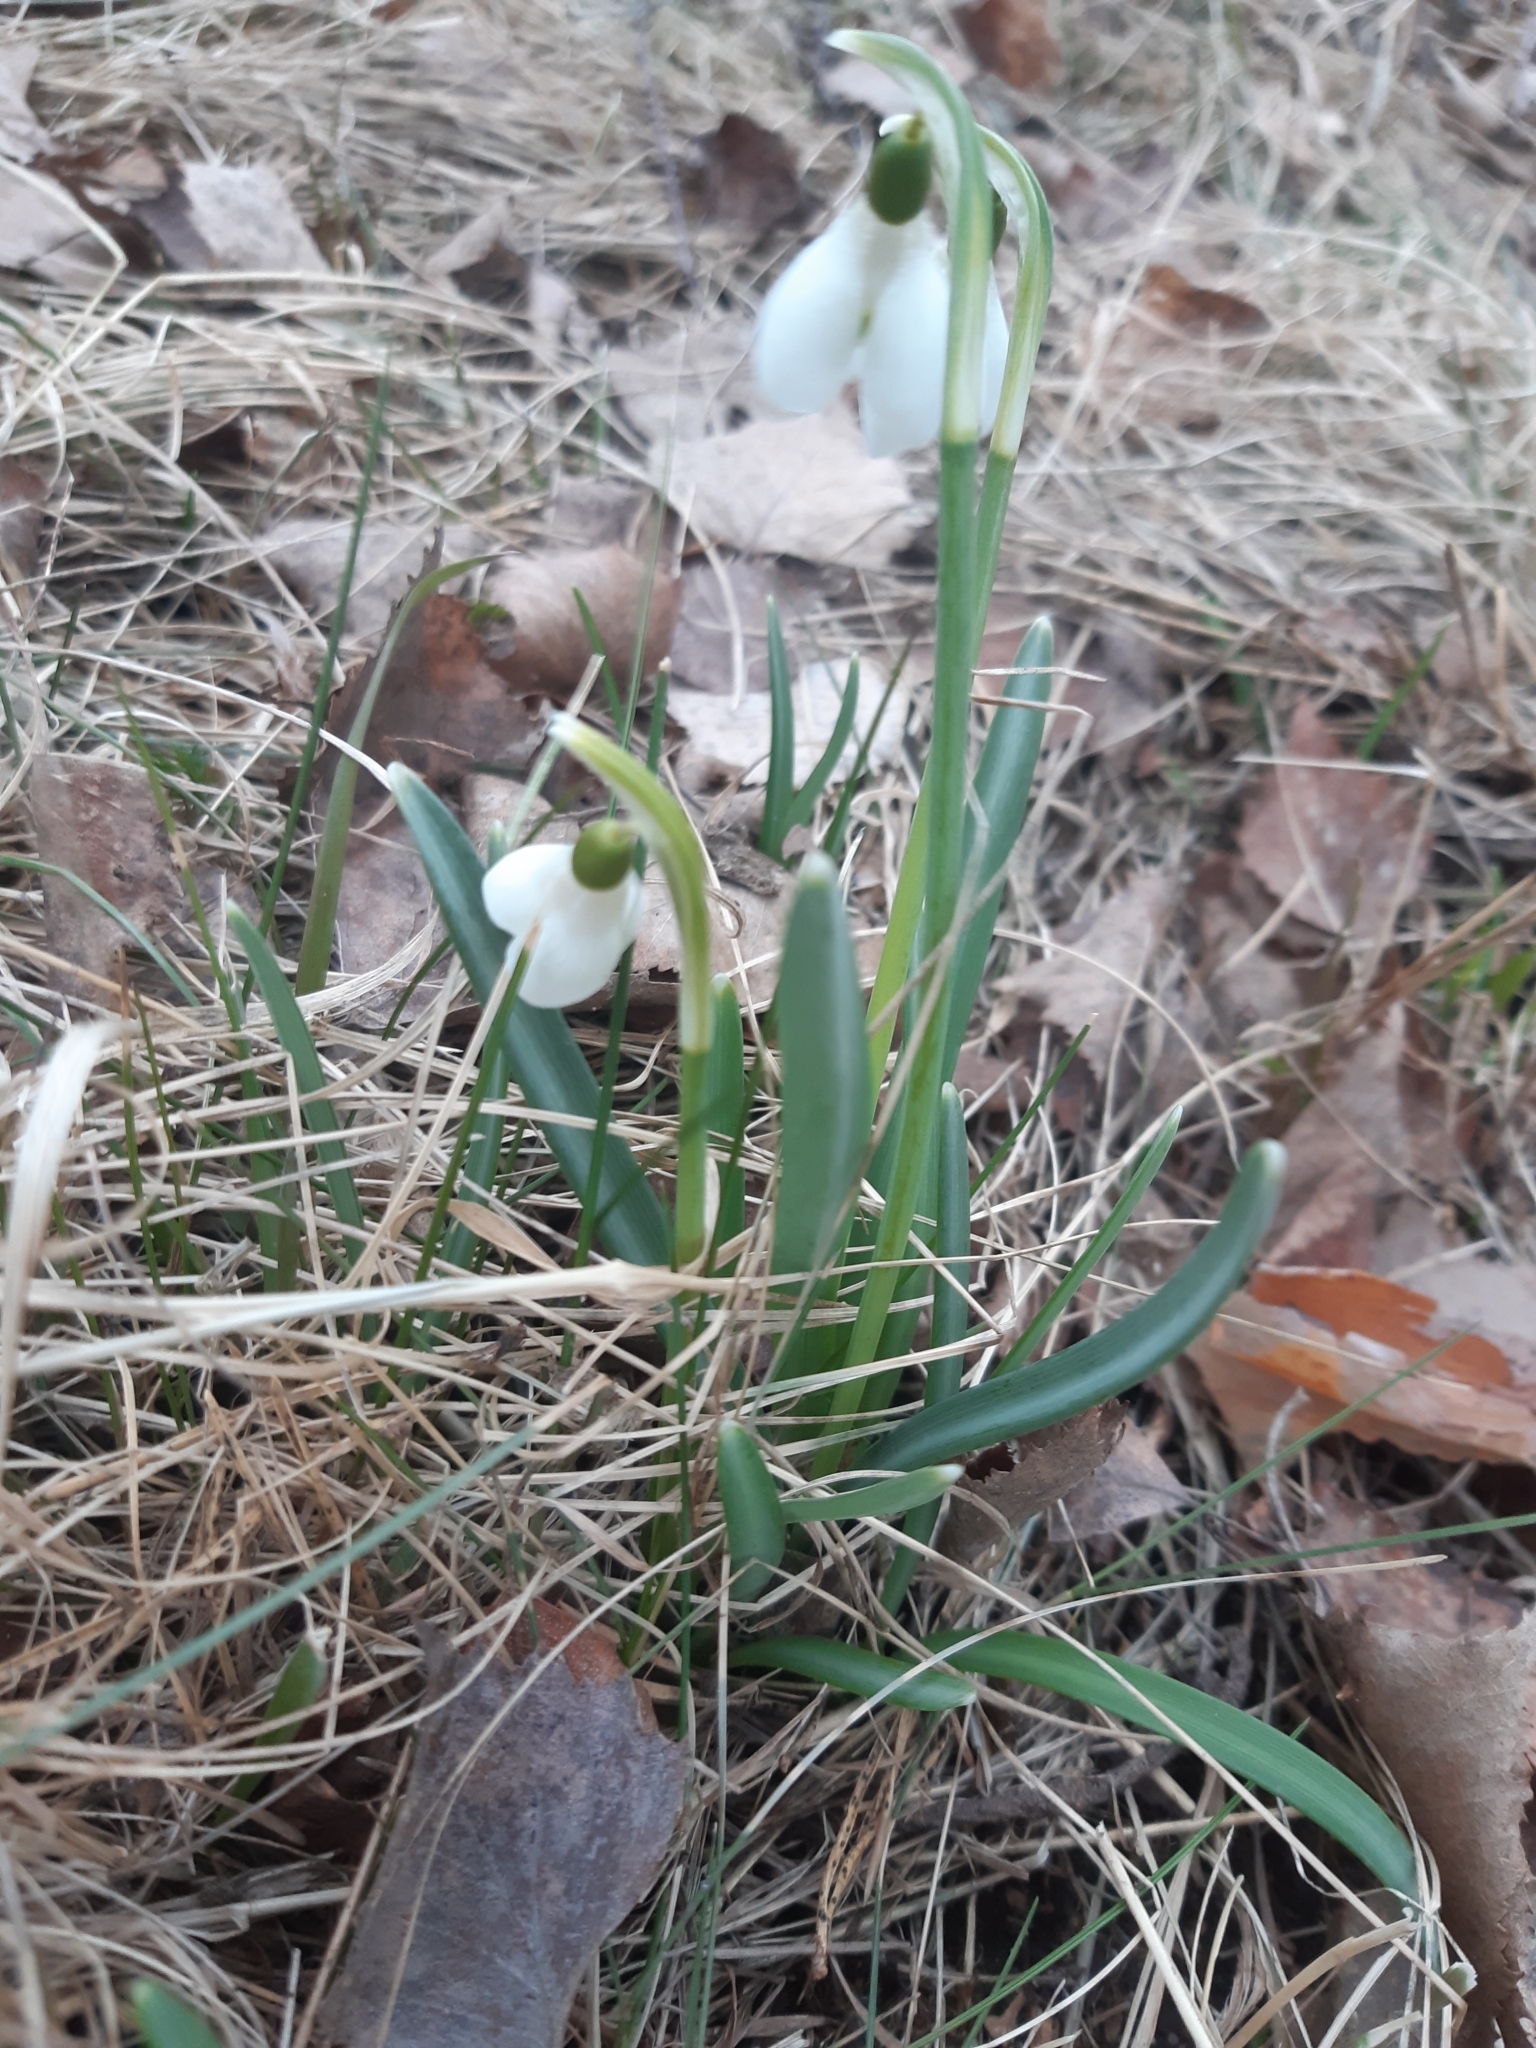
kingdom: Plantae
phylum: Tracheophyta
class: Liliopsida
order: Asparagales
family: Amaryllidaceae
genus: Galanthus
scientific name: Galanthus nivalis
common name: Snowdrop
